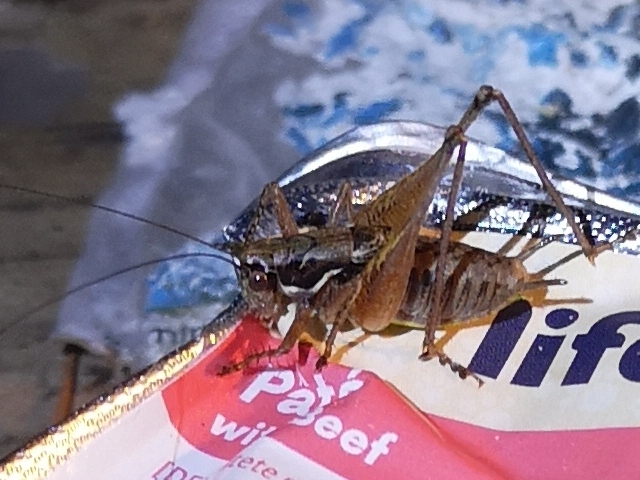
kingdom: Animalia
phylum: Arthropoda
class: Insecta
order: Orthoptera
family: Tettigoniidae
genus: Pachytrachis
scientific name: Pachytrachis gracilis
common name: Graceful bush-cricket
